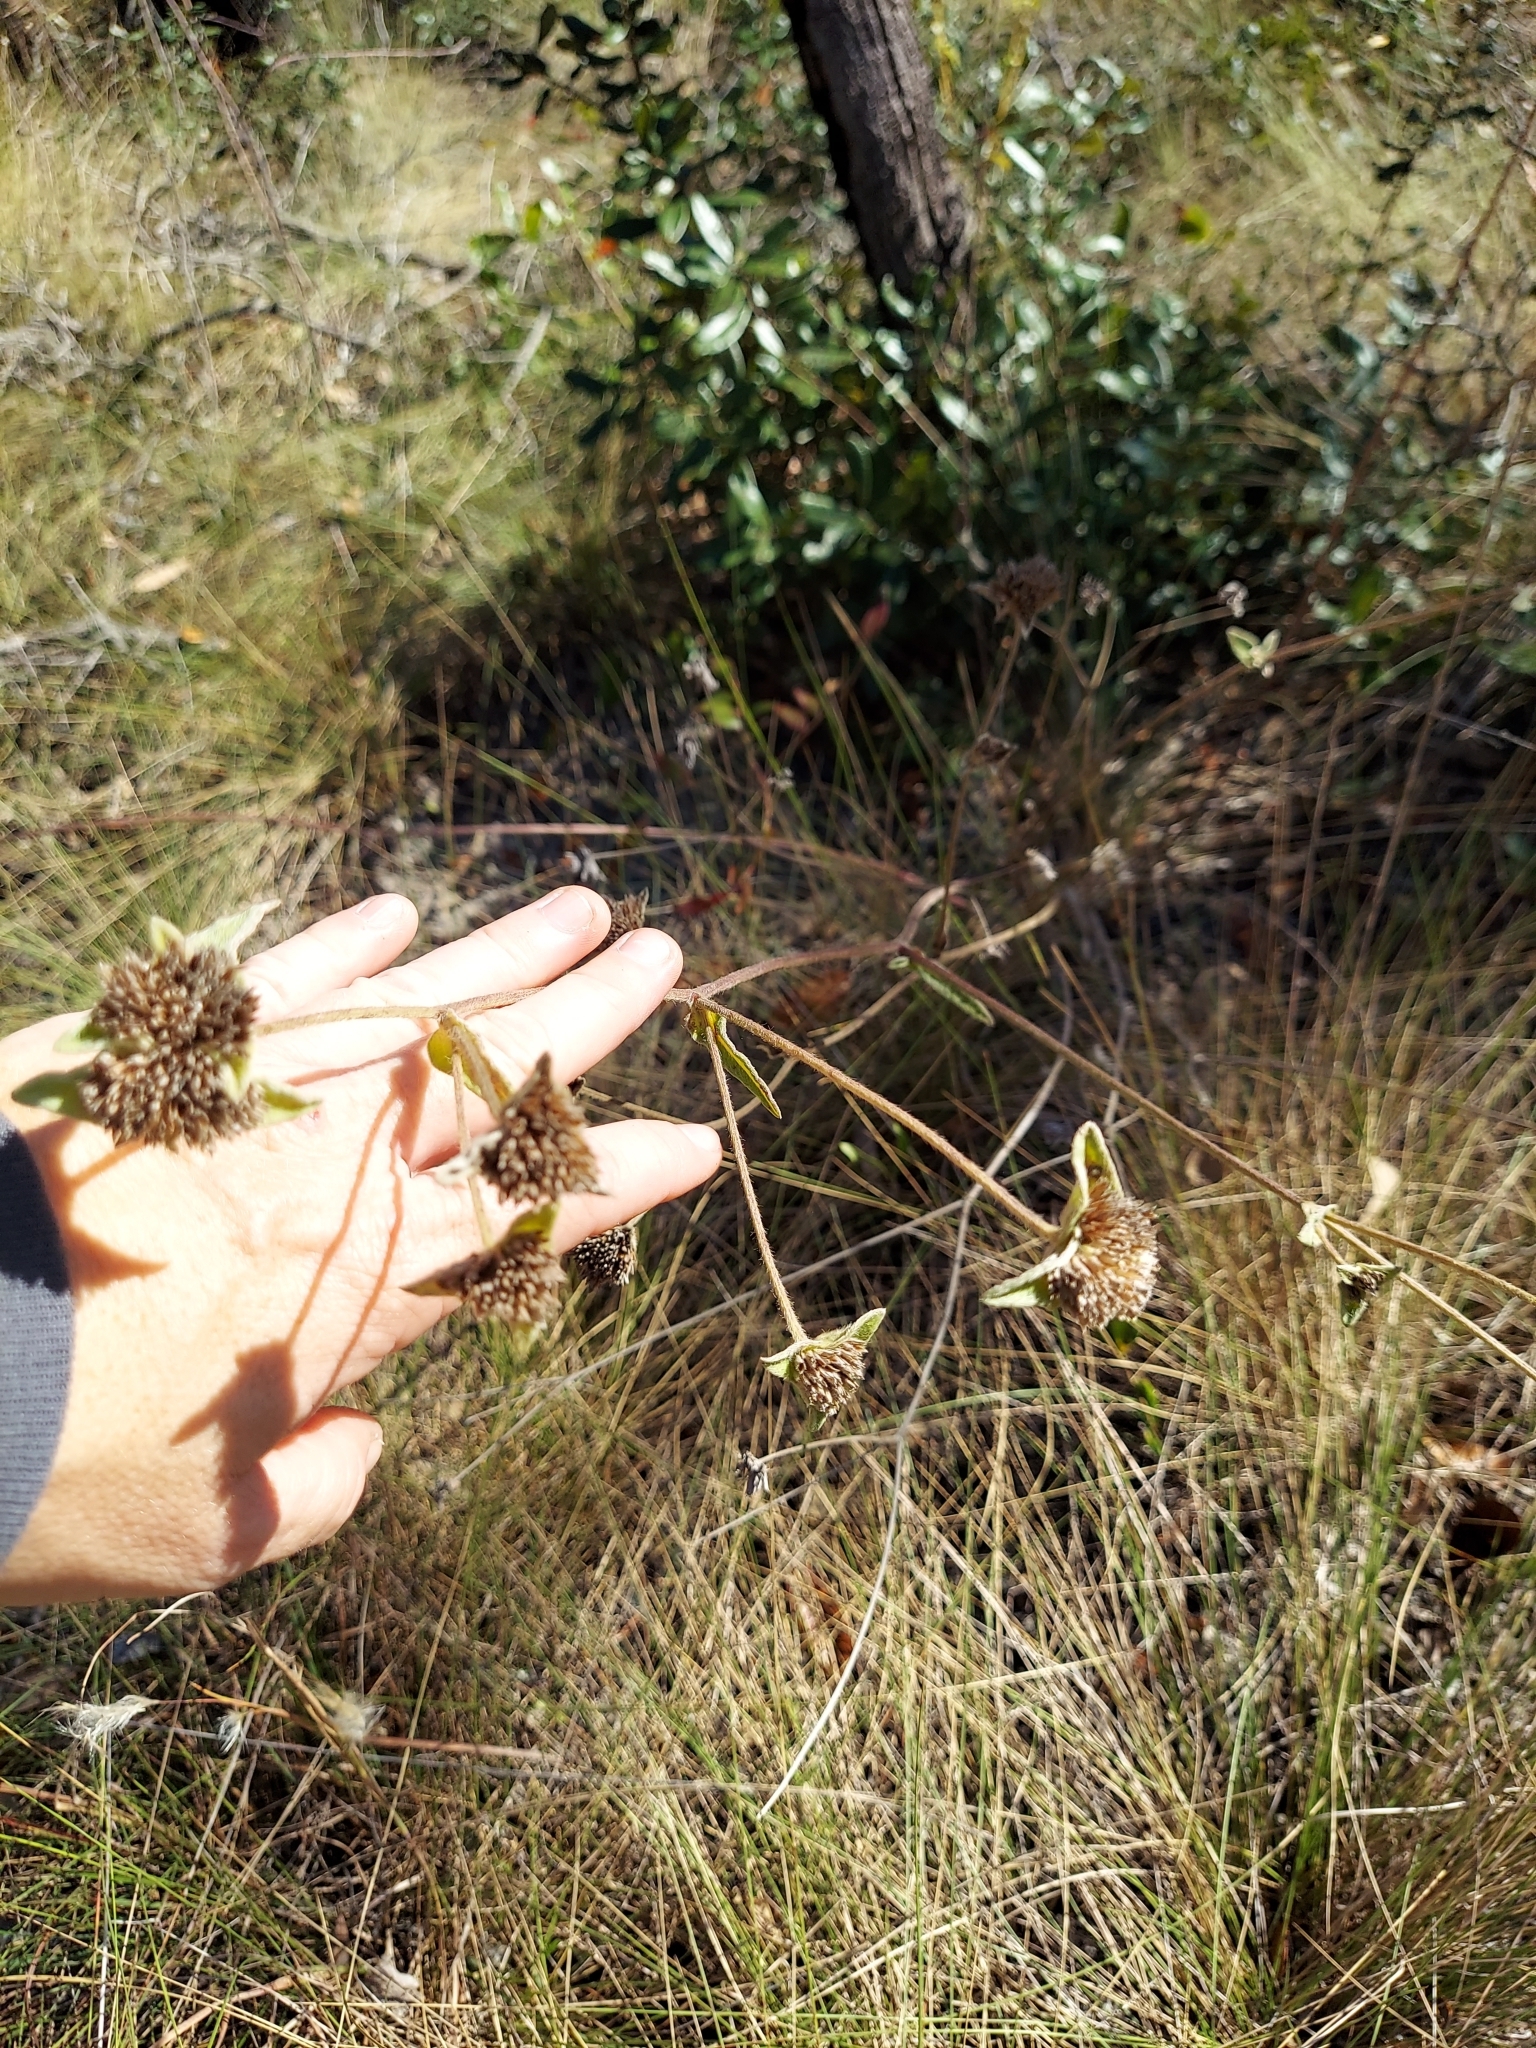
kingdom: Plantae
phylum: Tracheophyta
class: Magnoliopsida
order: Asterales
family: Asteraceae
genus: Elephantopus
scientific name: Elephantopus elatus
